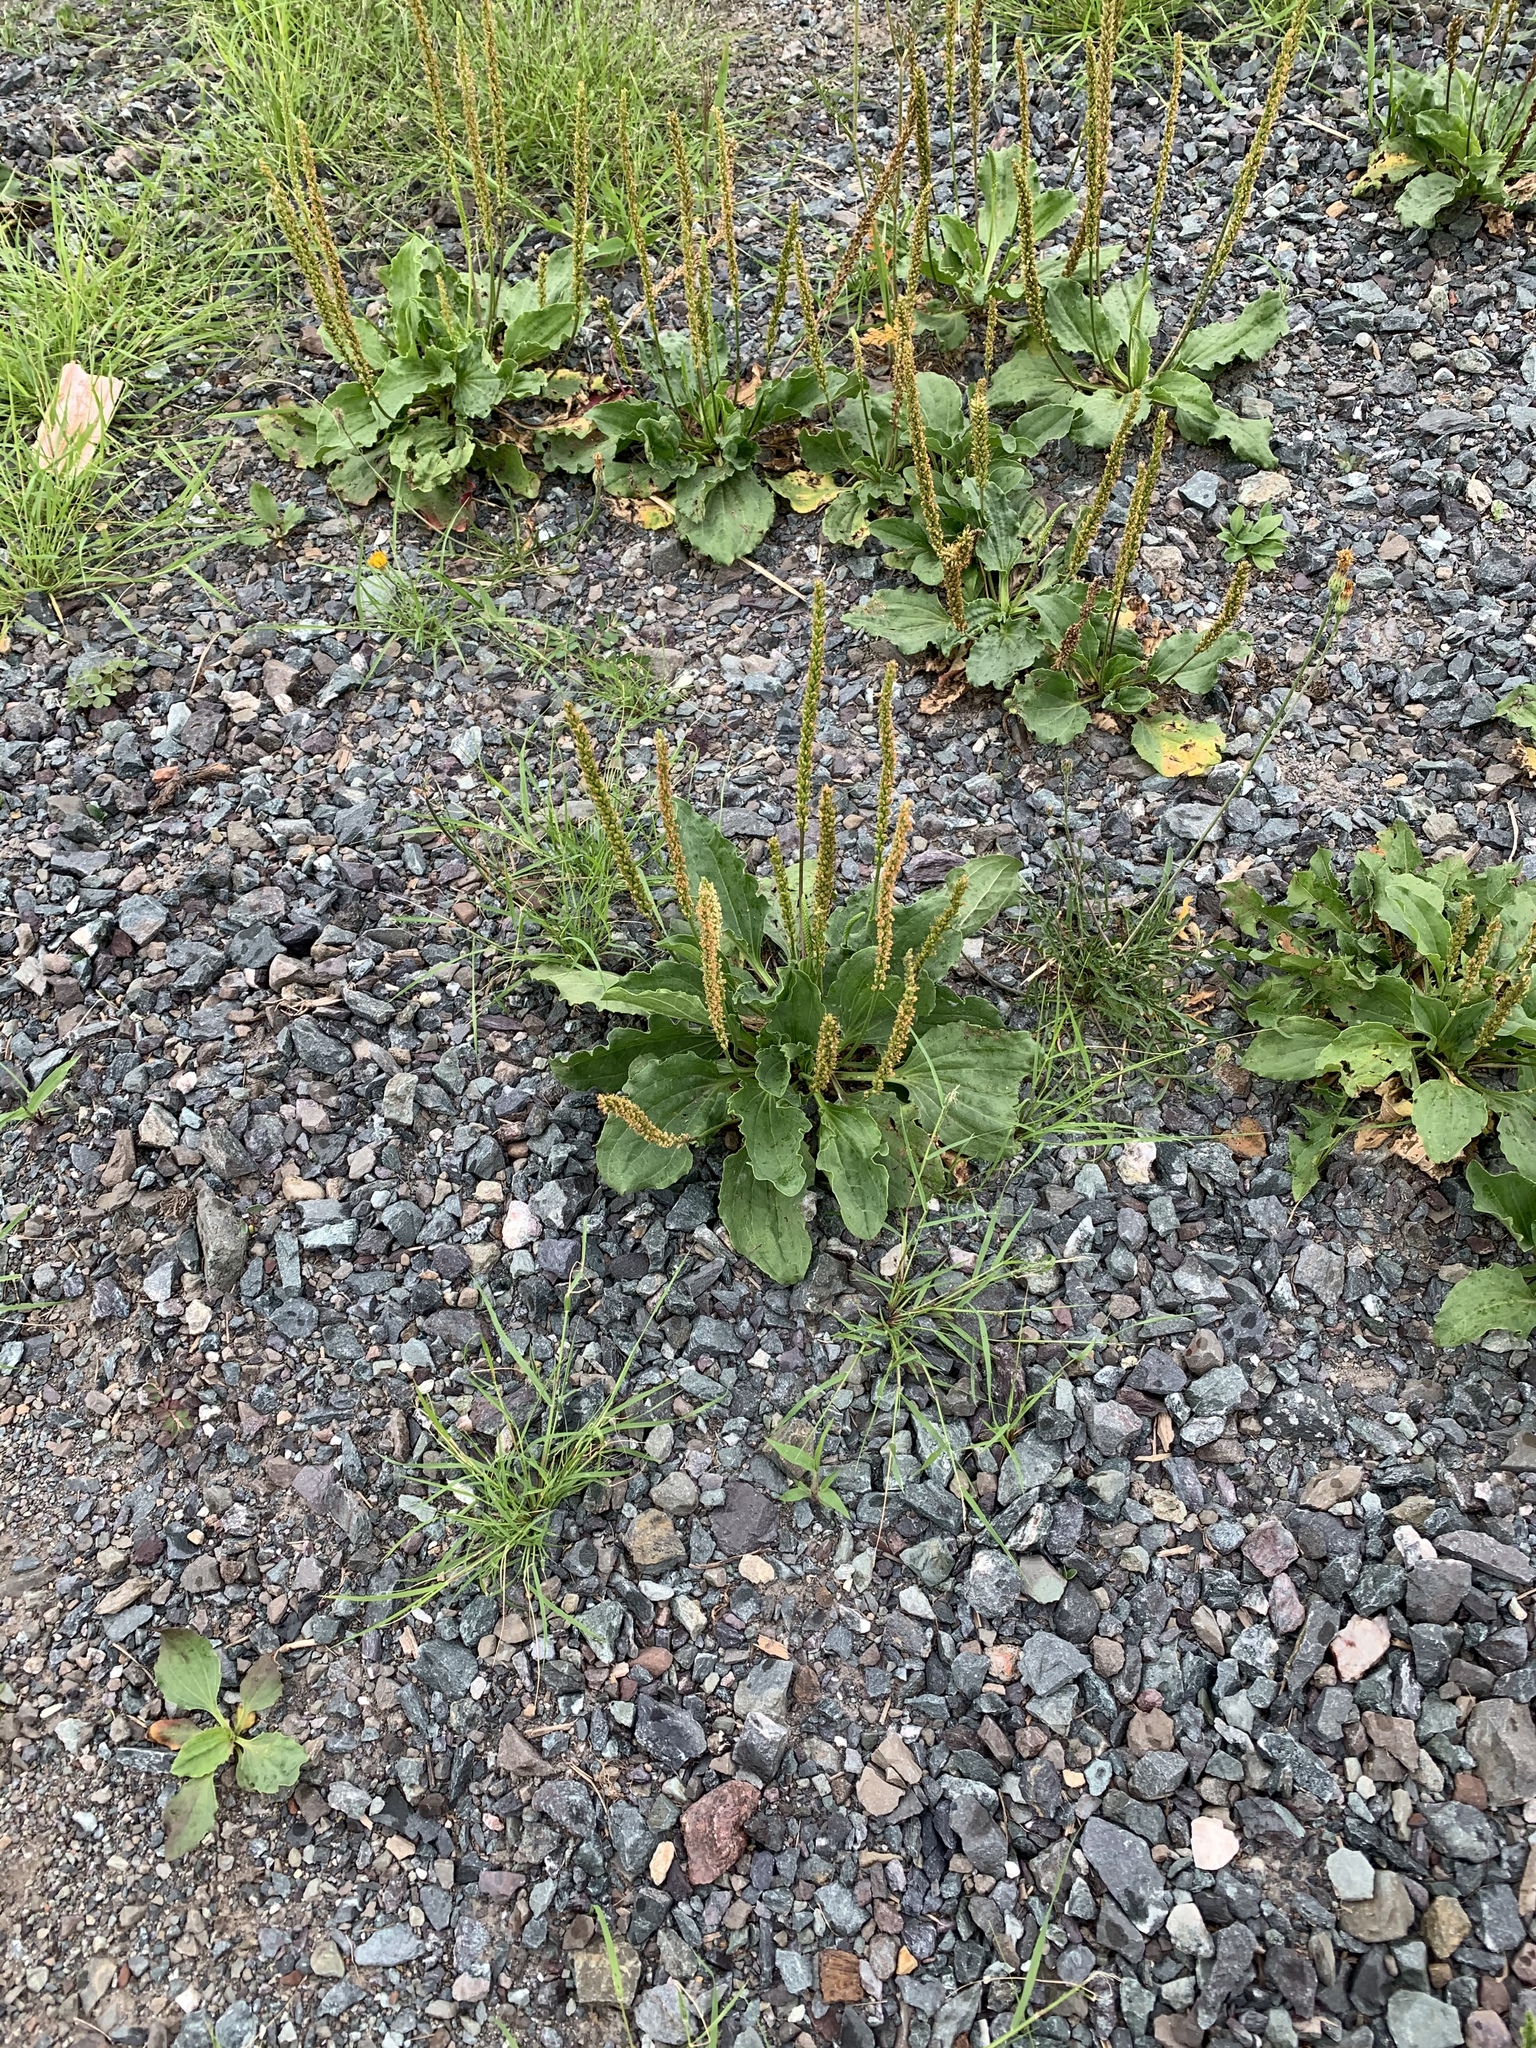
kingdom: Plantae
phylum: Tracheophyta
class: Magnoliopsida
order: Lamiales
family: Plantaginaceae
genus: Plantago
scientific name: Plantago major
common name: Common plantain
